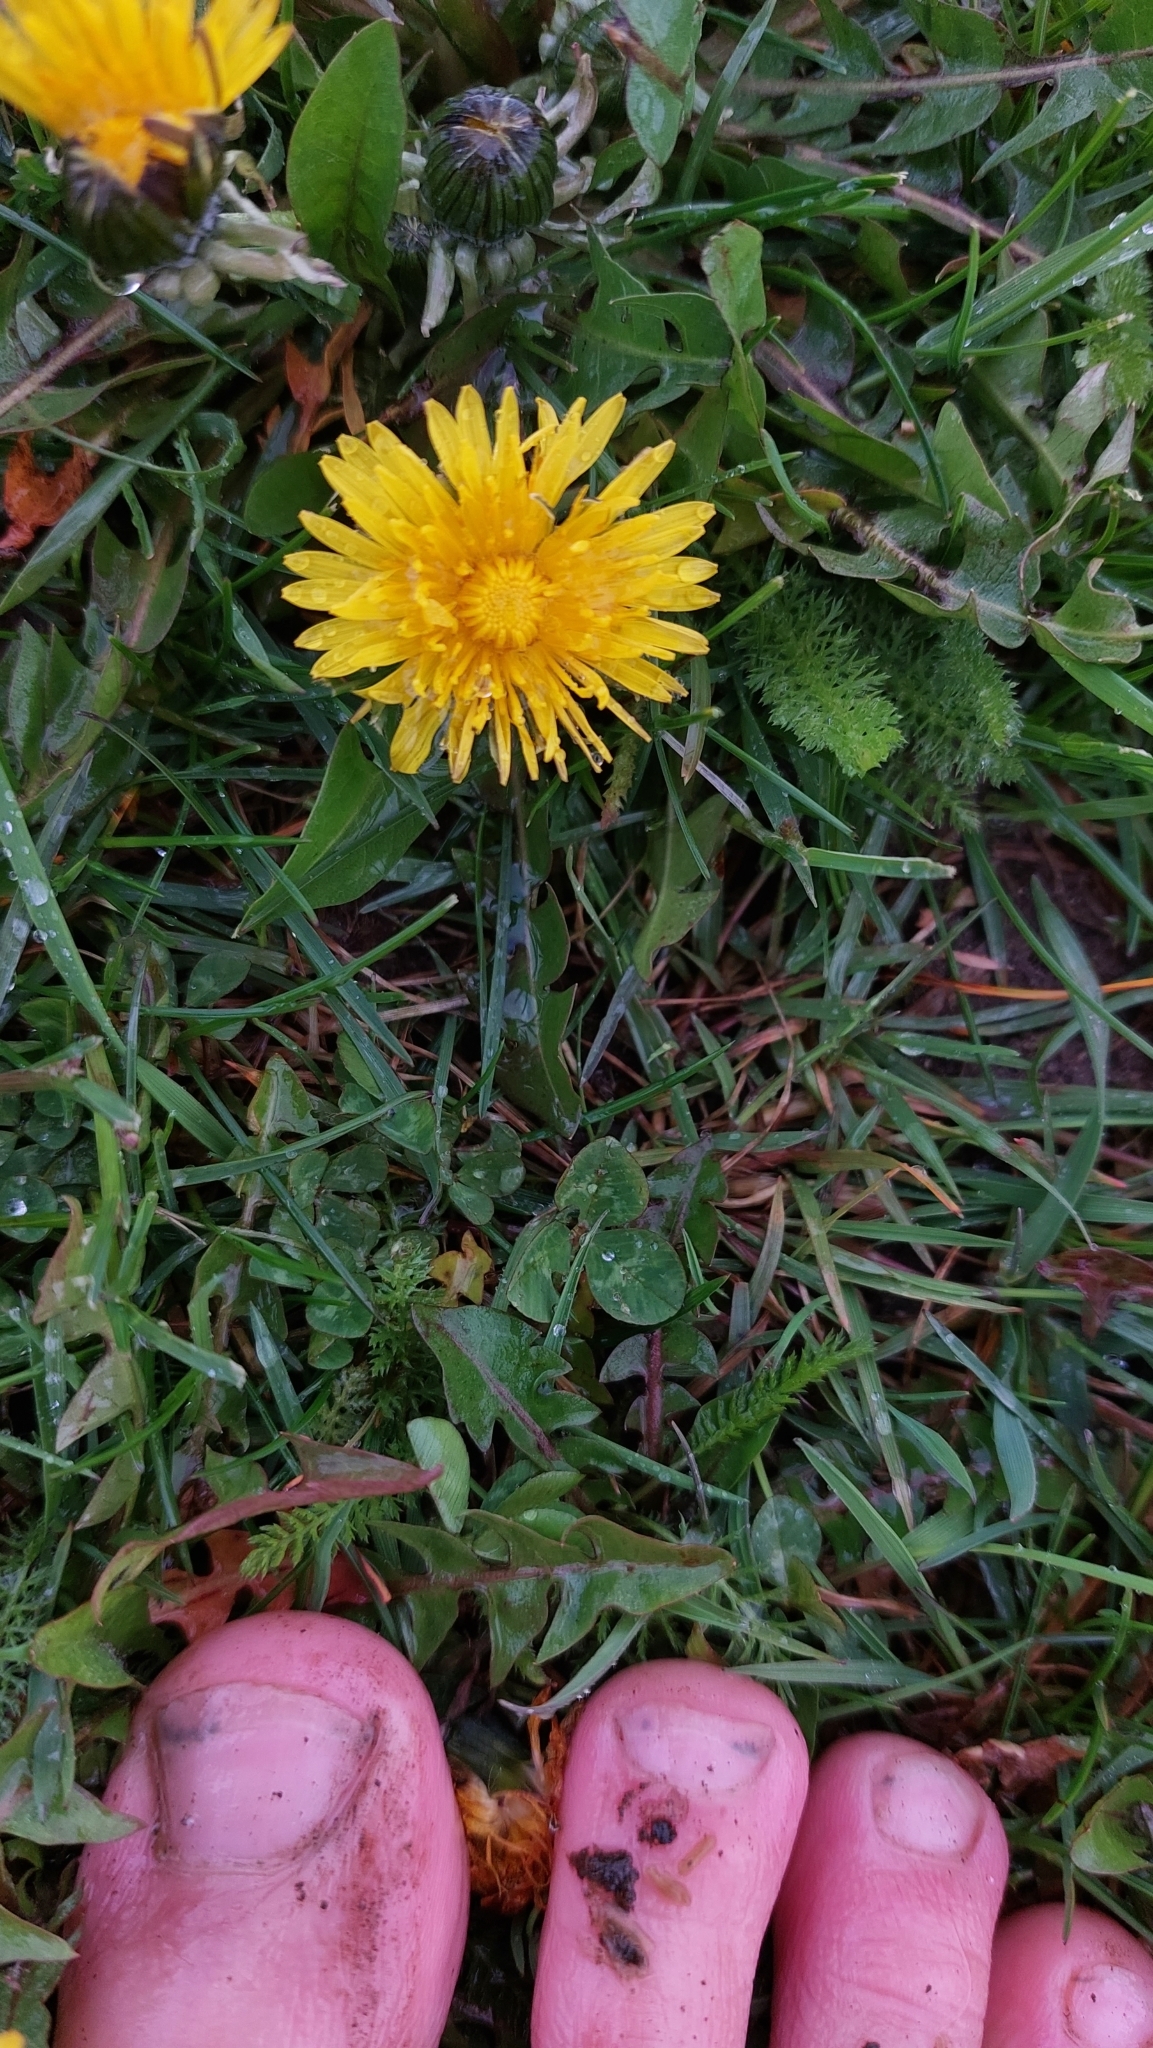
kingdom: Plantae
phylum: Tracheophyta
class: Magnoliopsida
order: Asterales
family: Asteraceae
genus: Taraxacum
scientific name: Taraxacum
